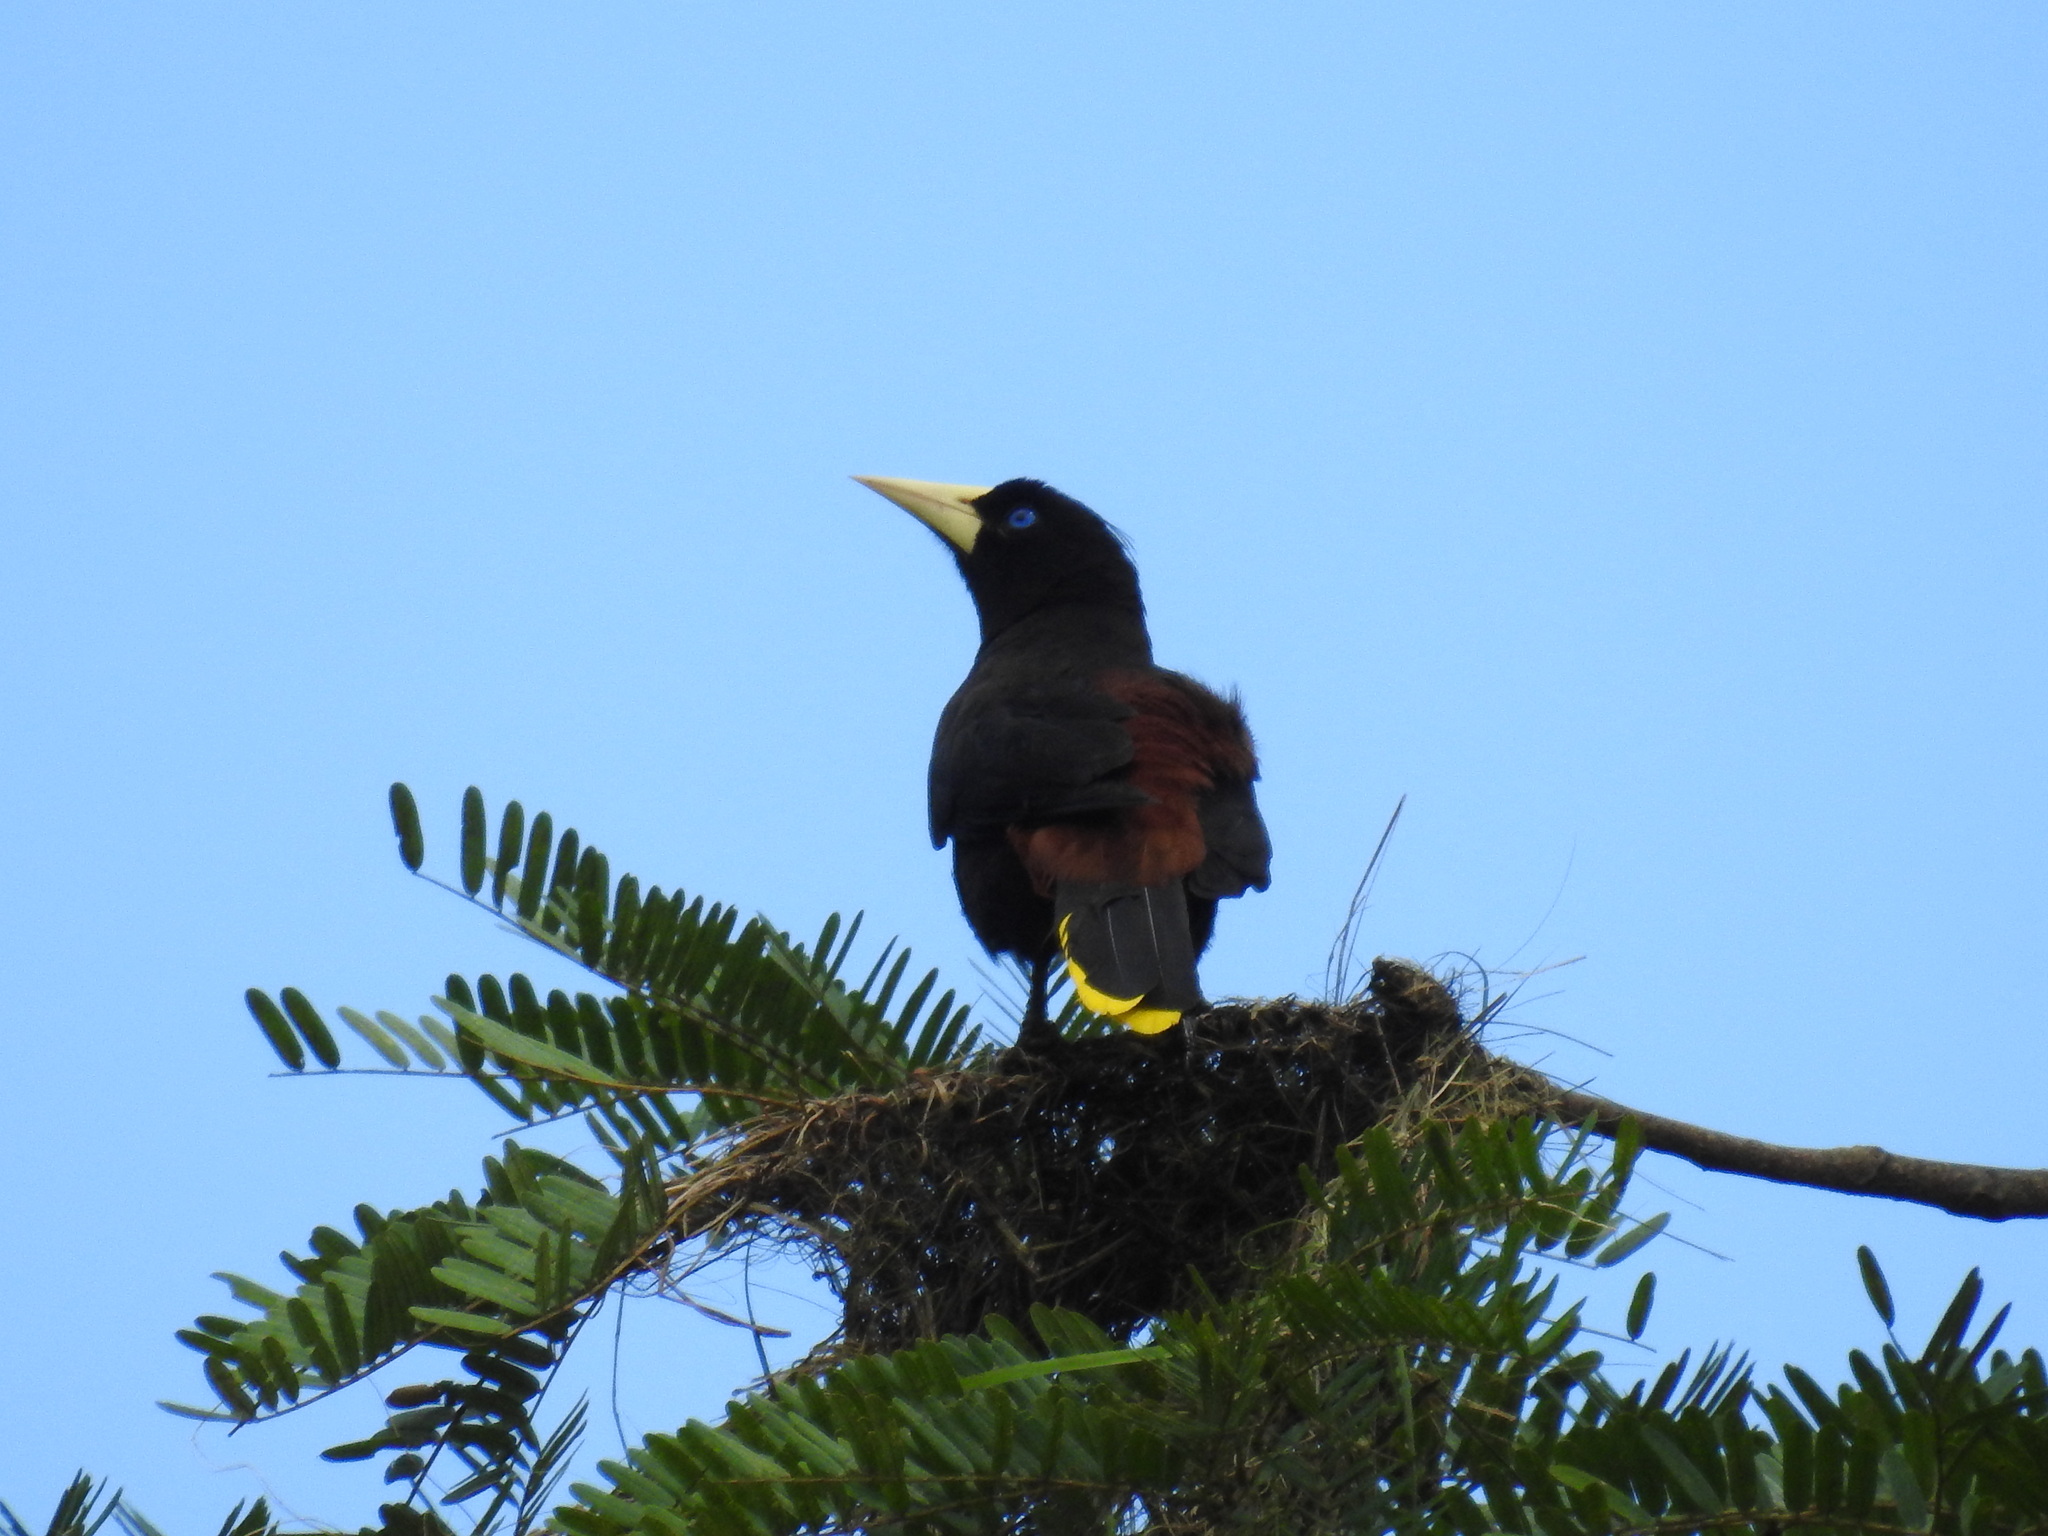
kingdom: Animalia
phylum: Chordata
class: Aves
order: Passeriformes
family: Icteridae
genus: Psarocolius
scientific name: Psarocolius decumanus
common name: Crested oropendola
